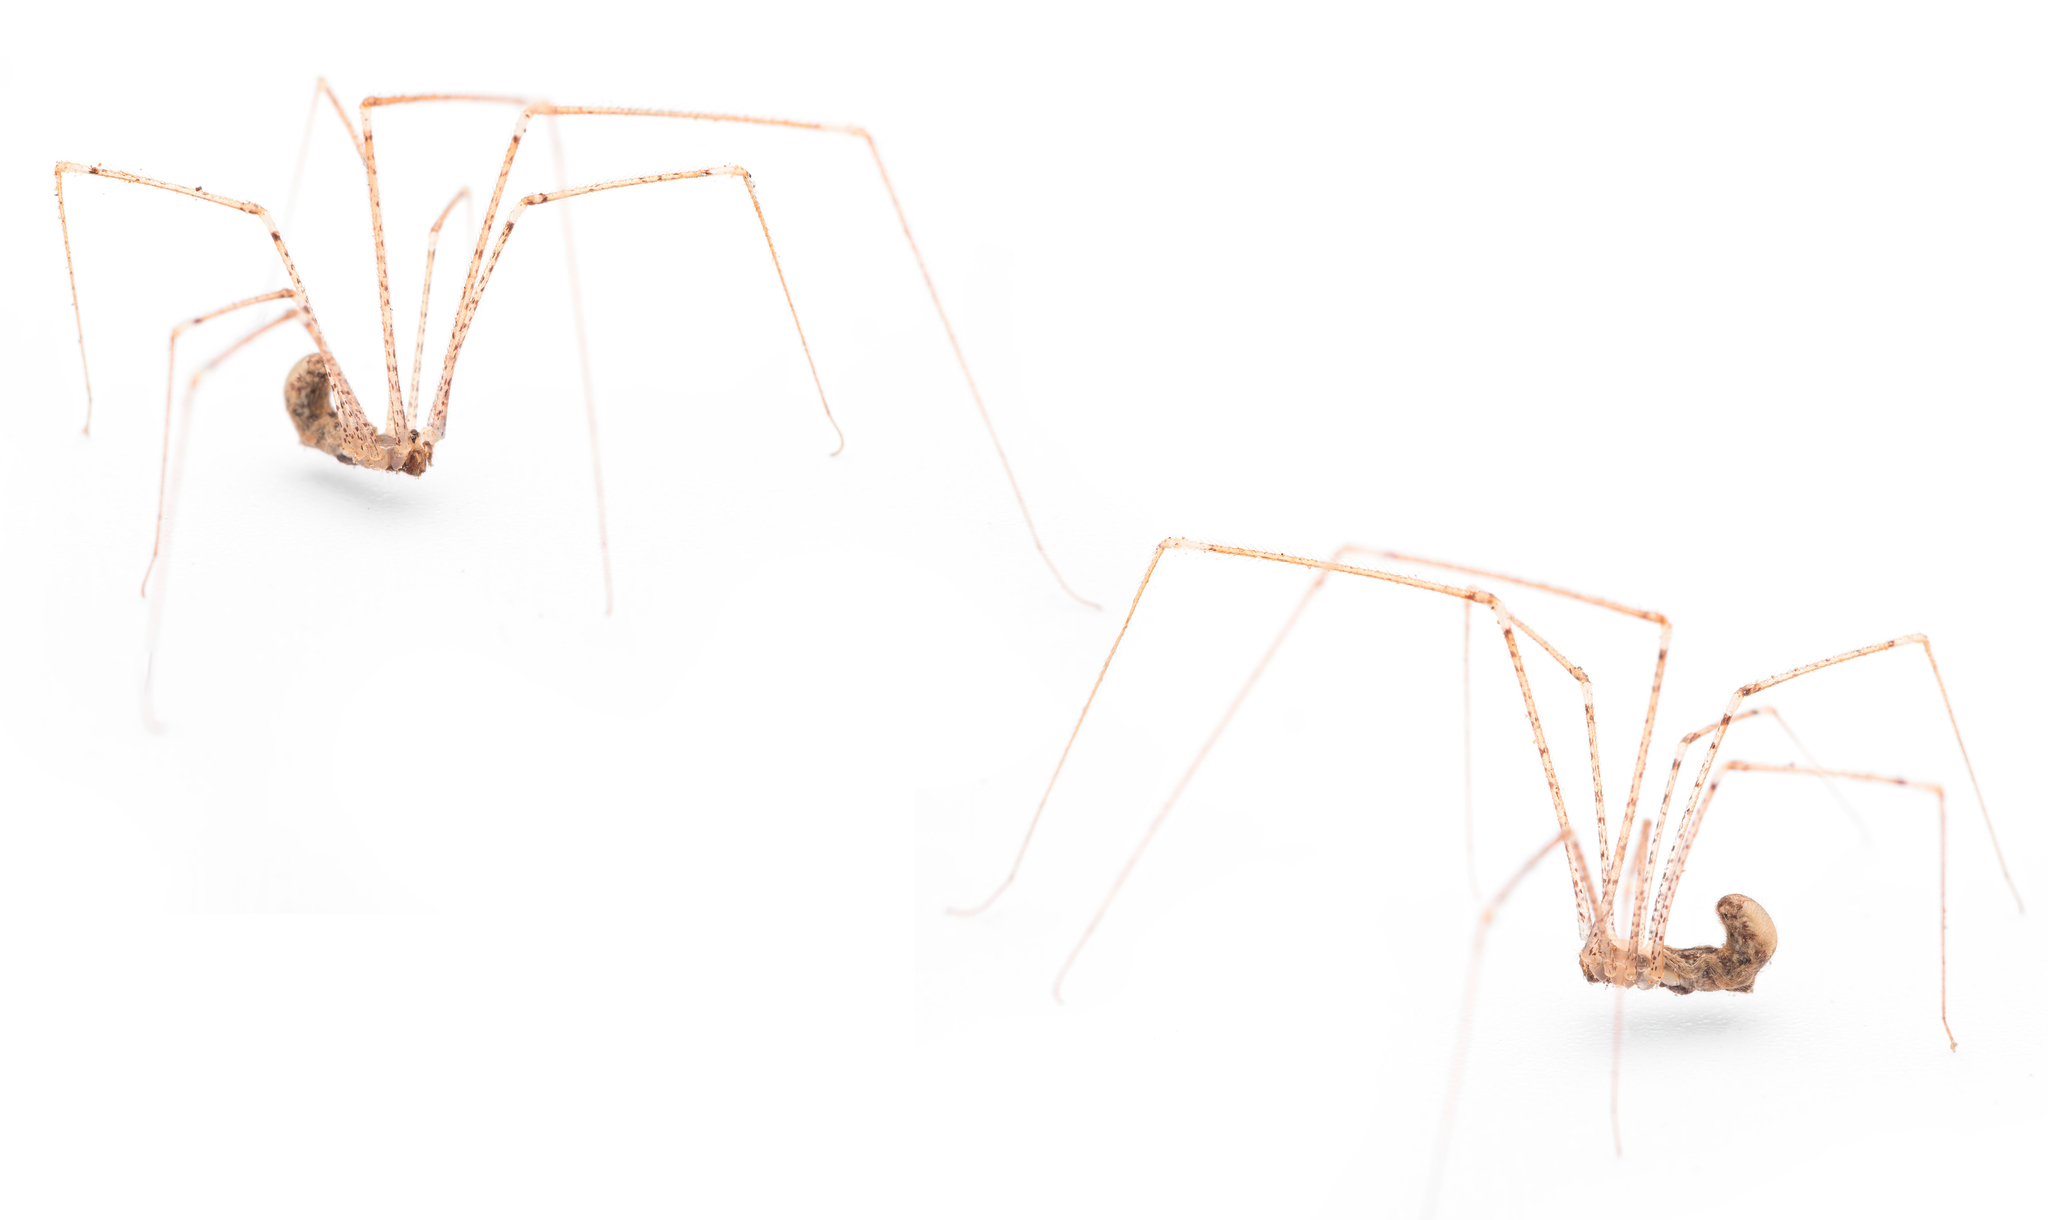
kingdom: Animalia
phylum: Arthropoda
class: Arachnida
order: Araneae
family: Pholcidae
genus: Holocnemus
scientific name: Holocnemus pluchei
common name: Marbled cellar spider
